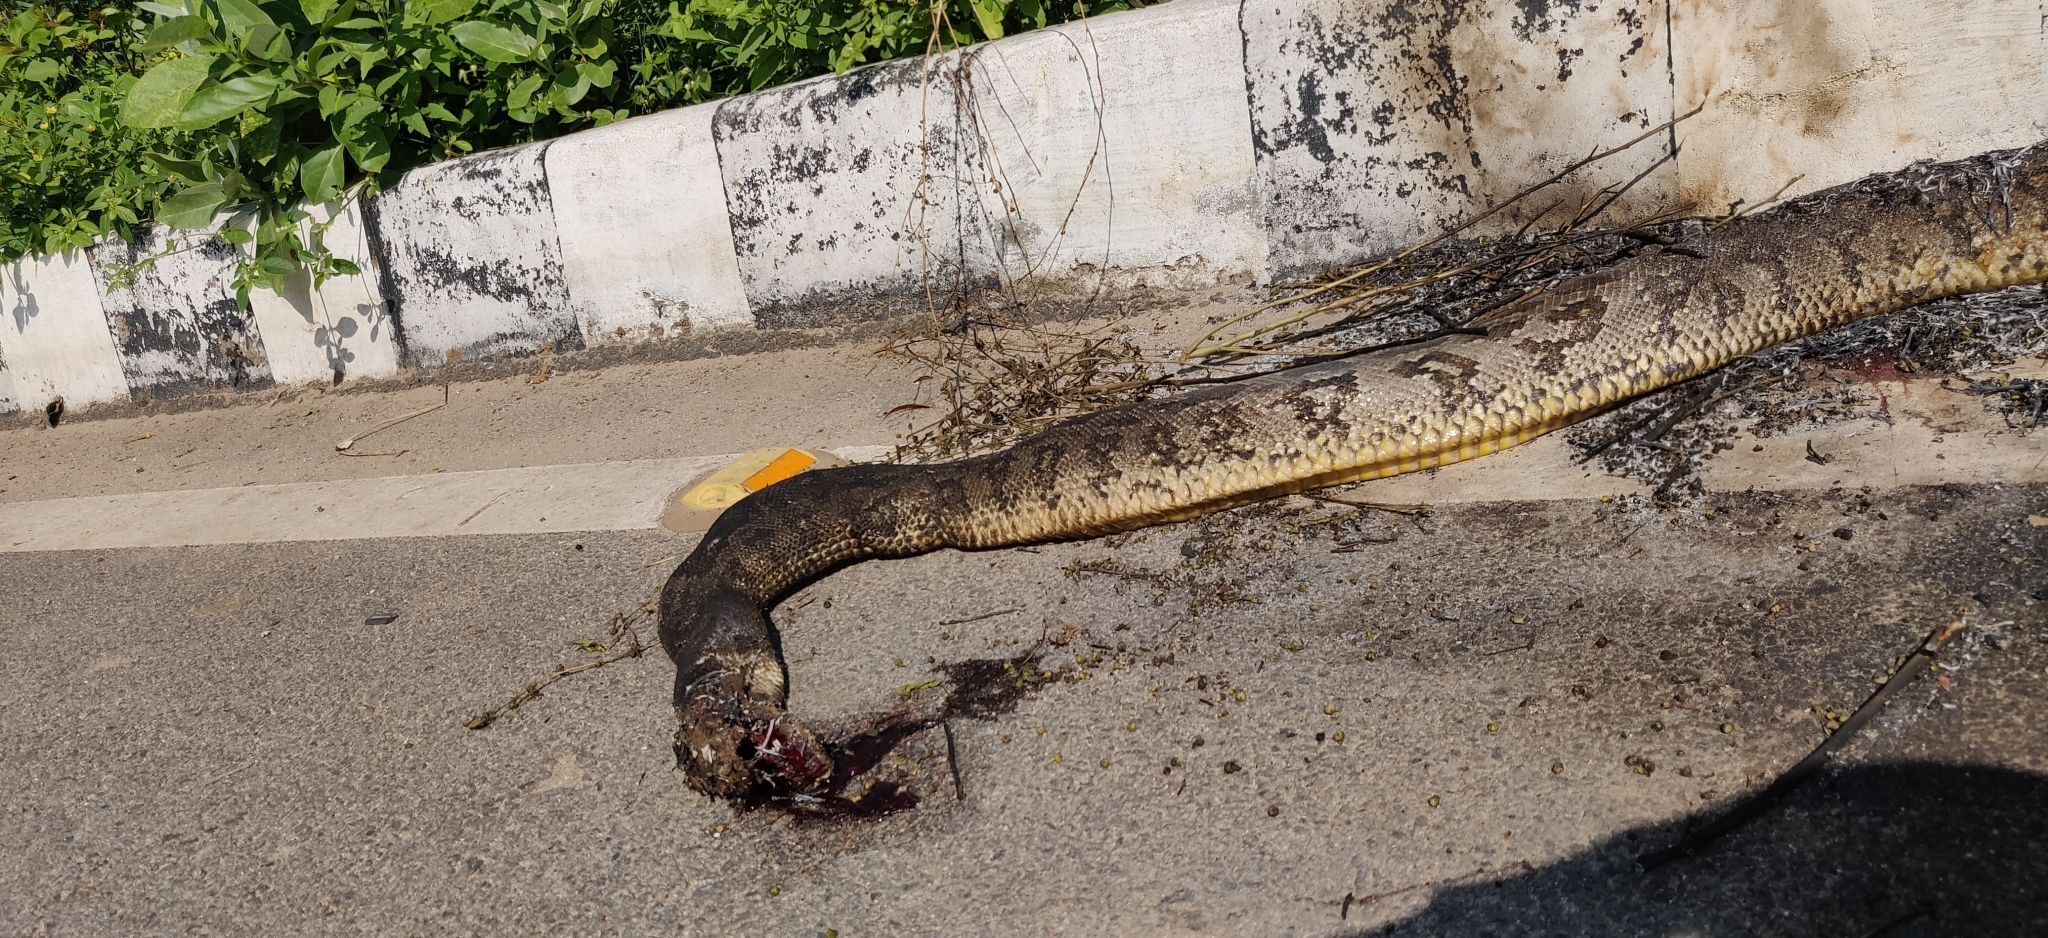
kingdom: Animalia
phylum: Chordata
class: Squamata
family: Pythonidae
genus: Python
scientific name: Python molurus
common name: Indian rock python
